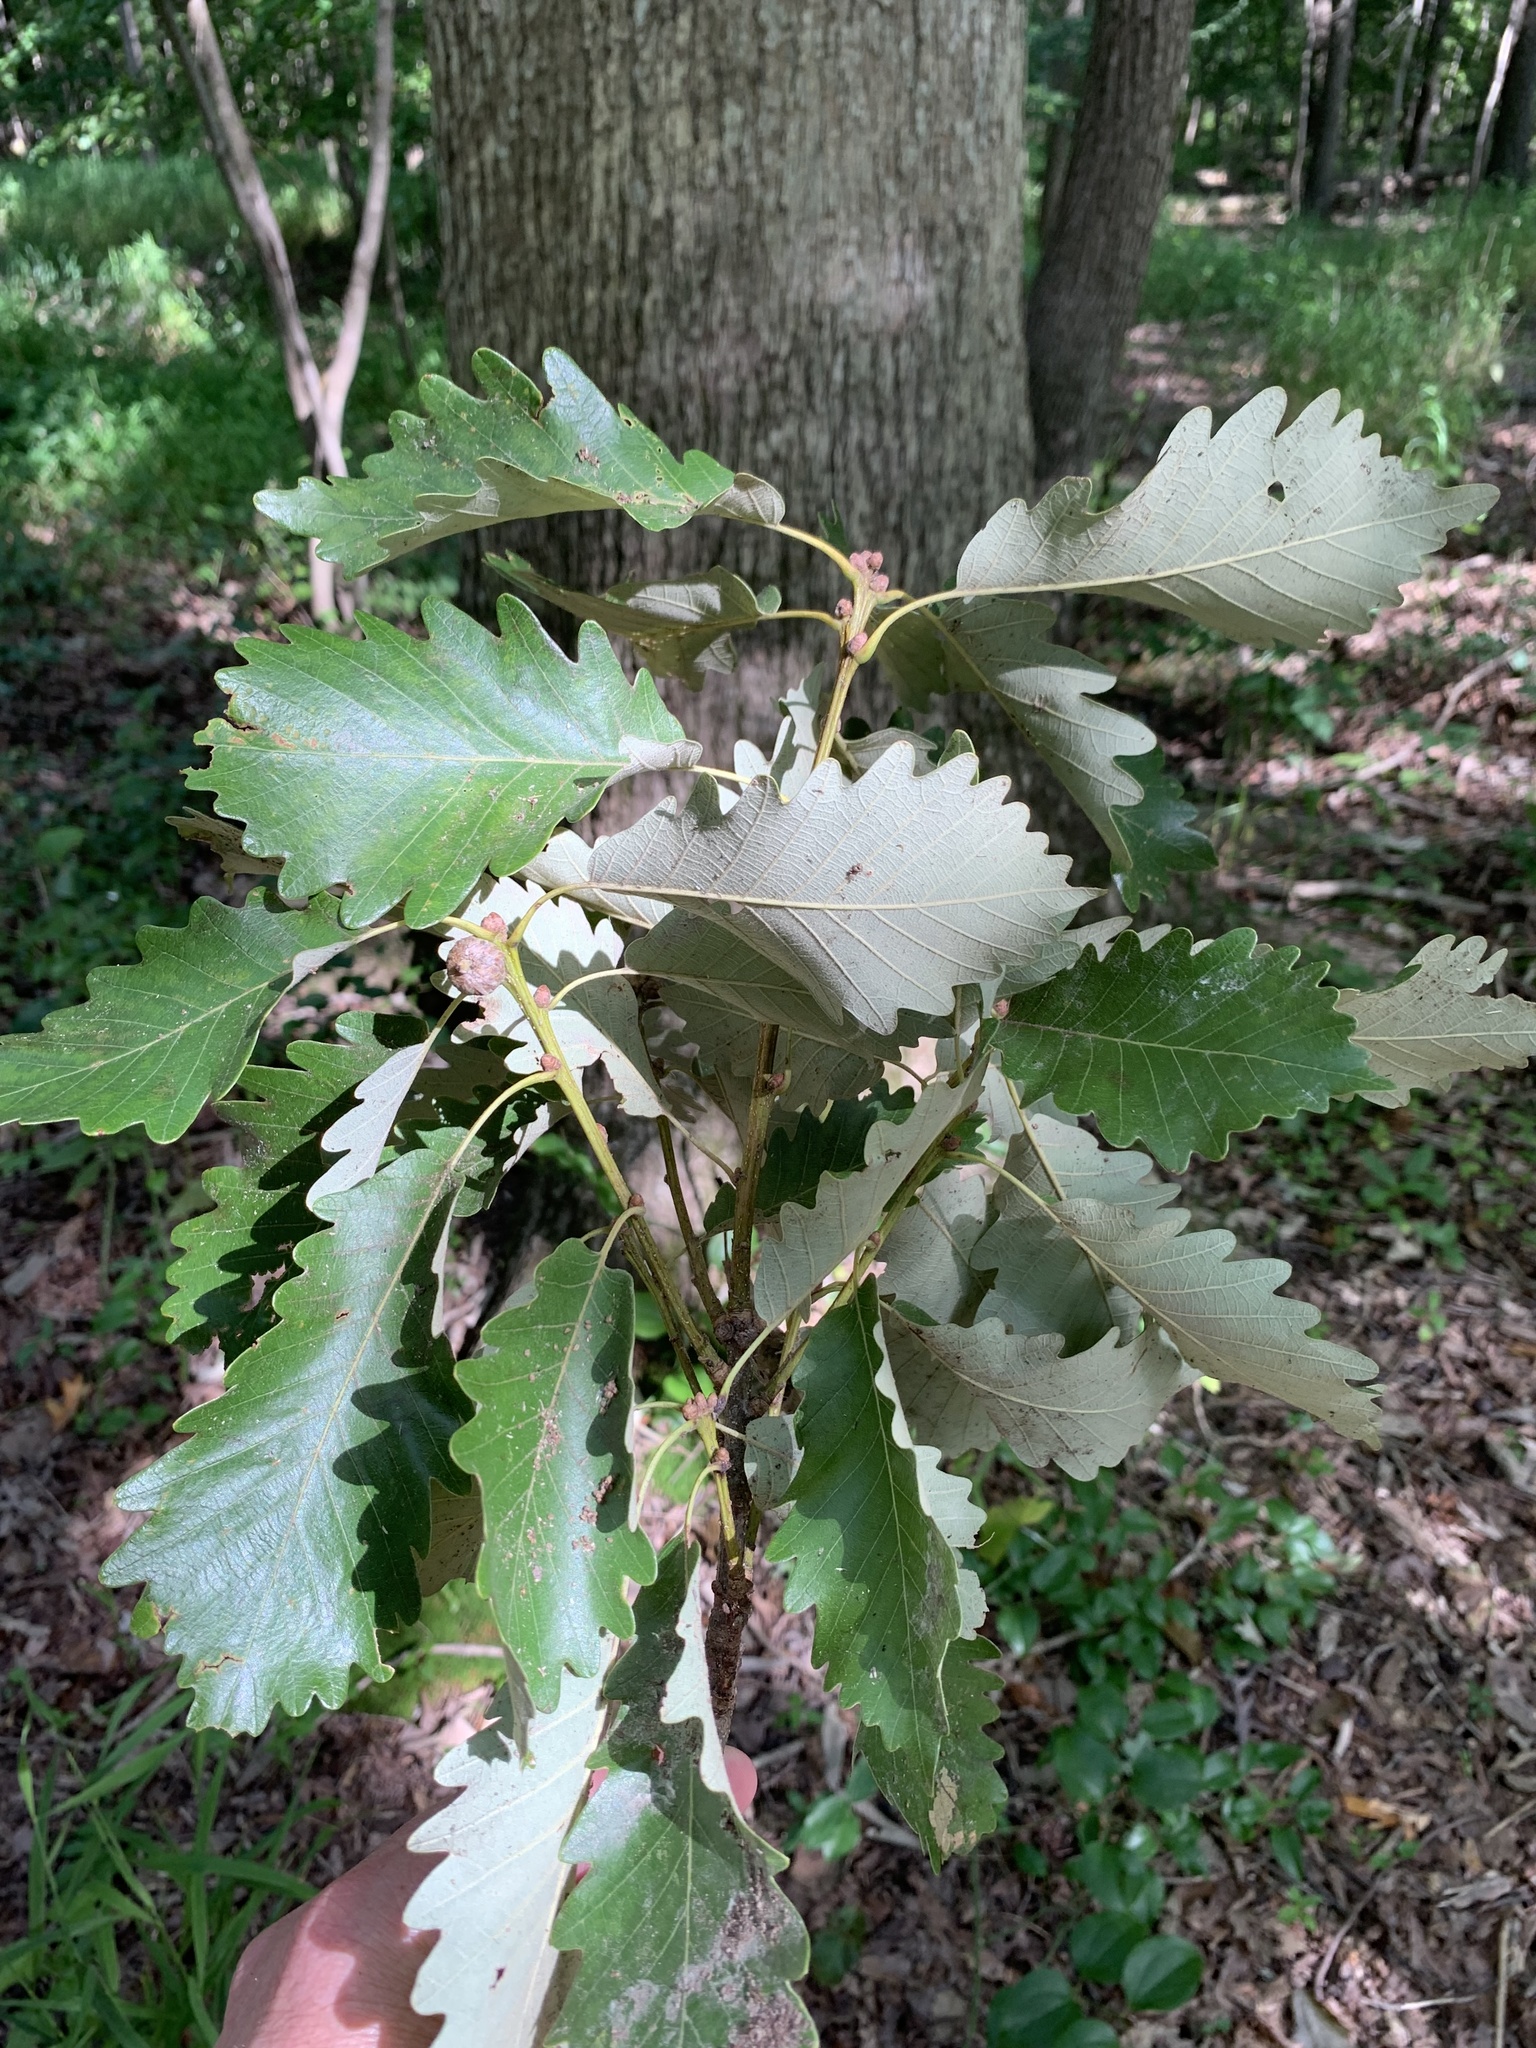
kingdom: Plantae
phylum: Tracheophyta
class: Magnoliopsida
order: Fagales
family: Fagaceae
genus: Quercus
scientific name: Quercus michauxii
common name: Swamp chestnut oak
